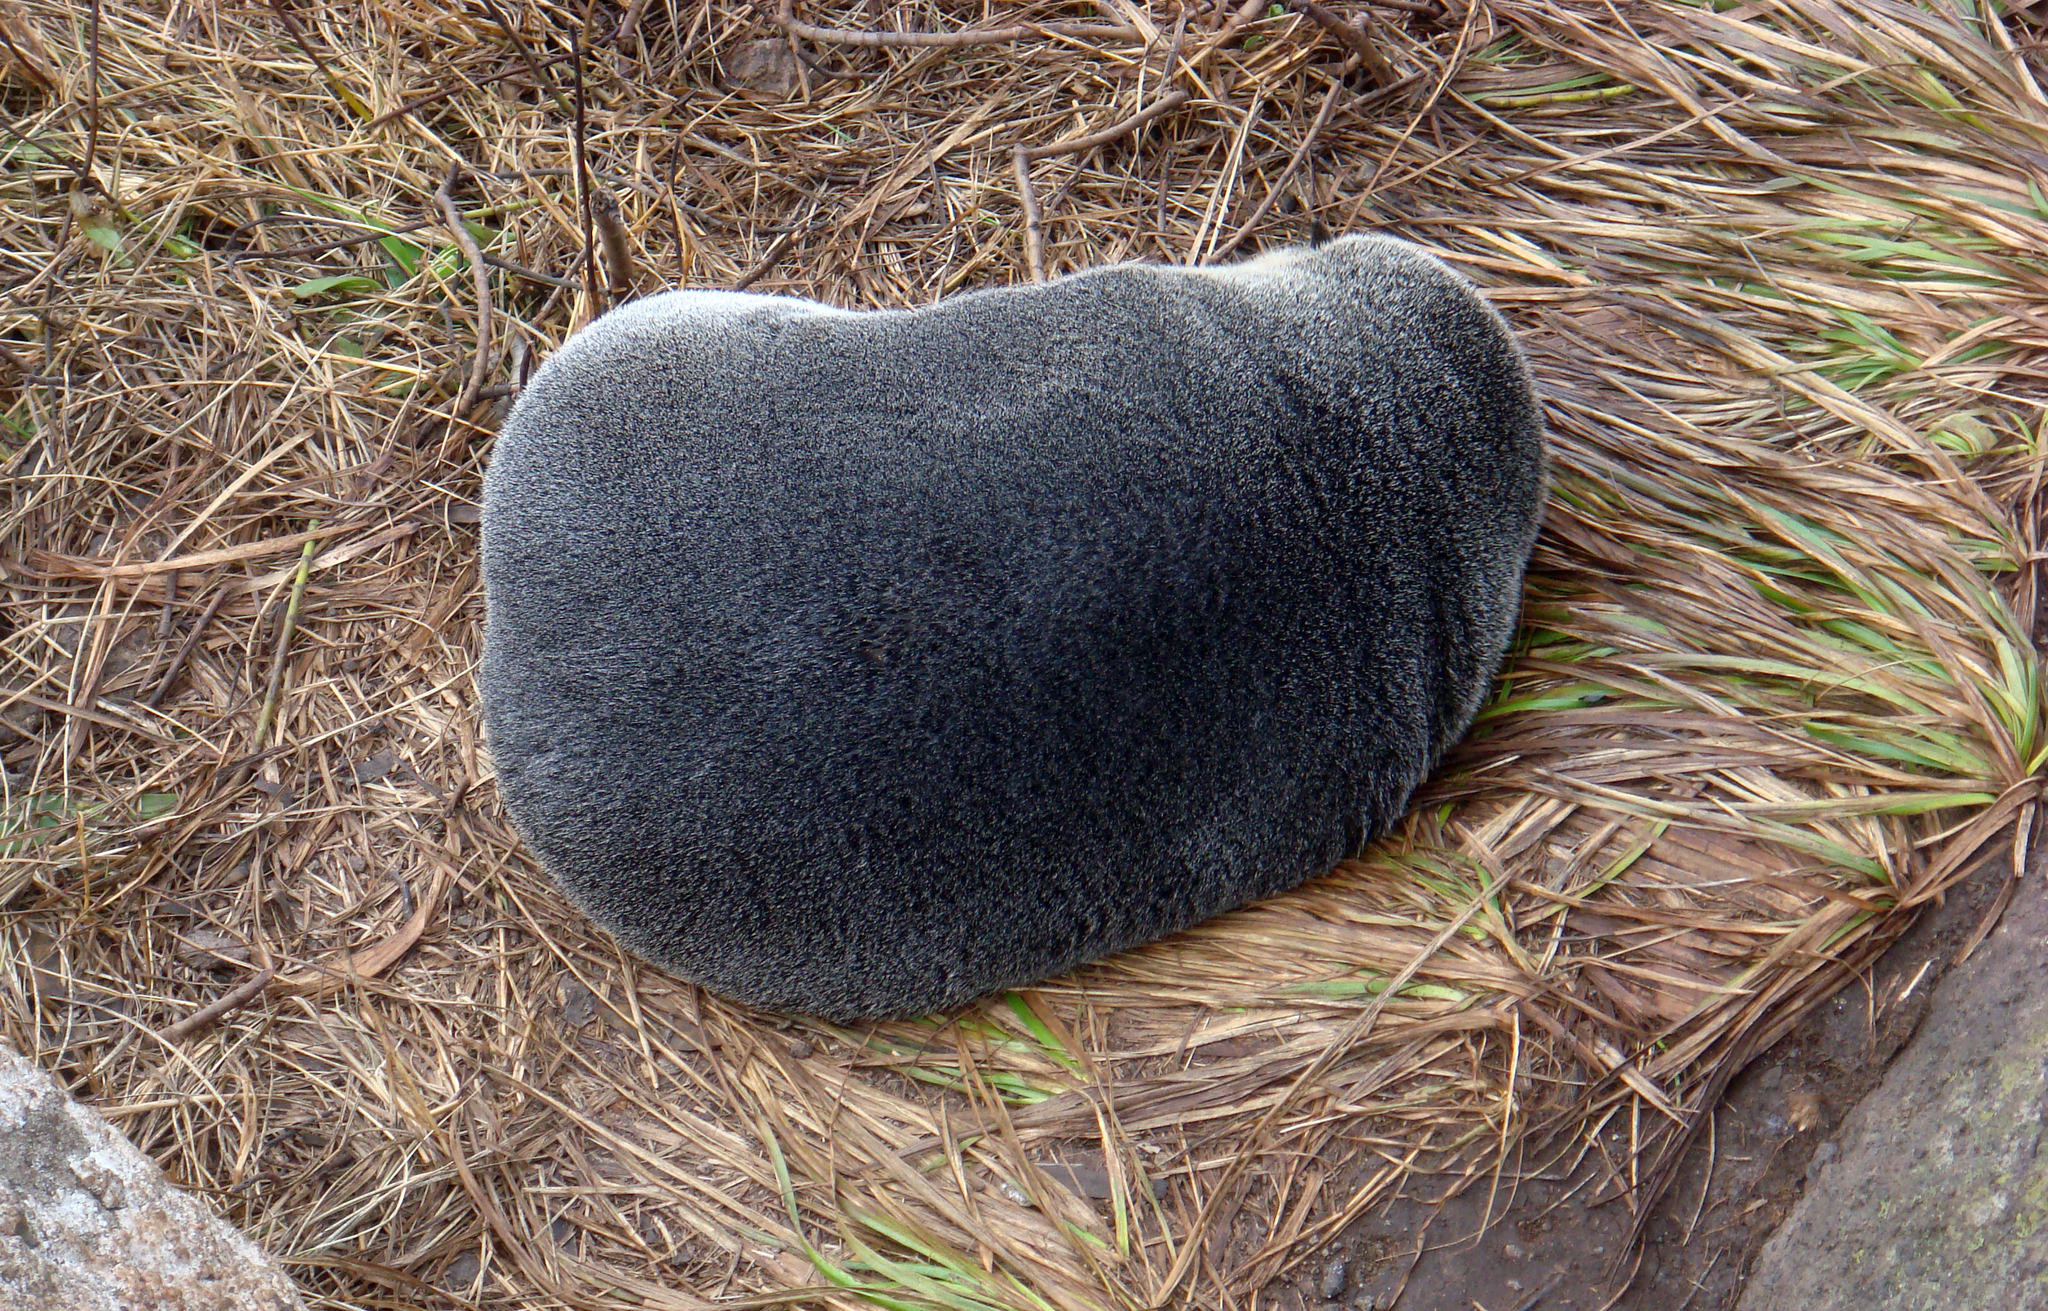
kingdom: Animalia
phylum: Chordata
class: Mammalia
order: Carnivora
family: Otariidae
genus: Arctocephalus
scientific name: Arctocephalus forsteri
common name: New zealand fur seal
